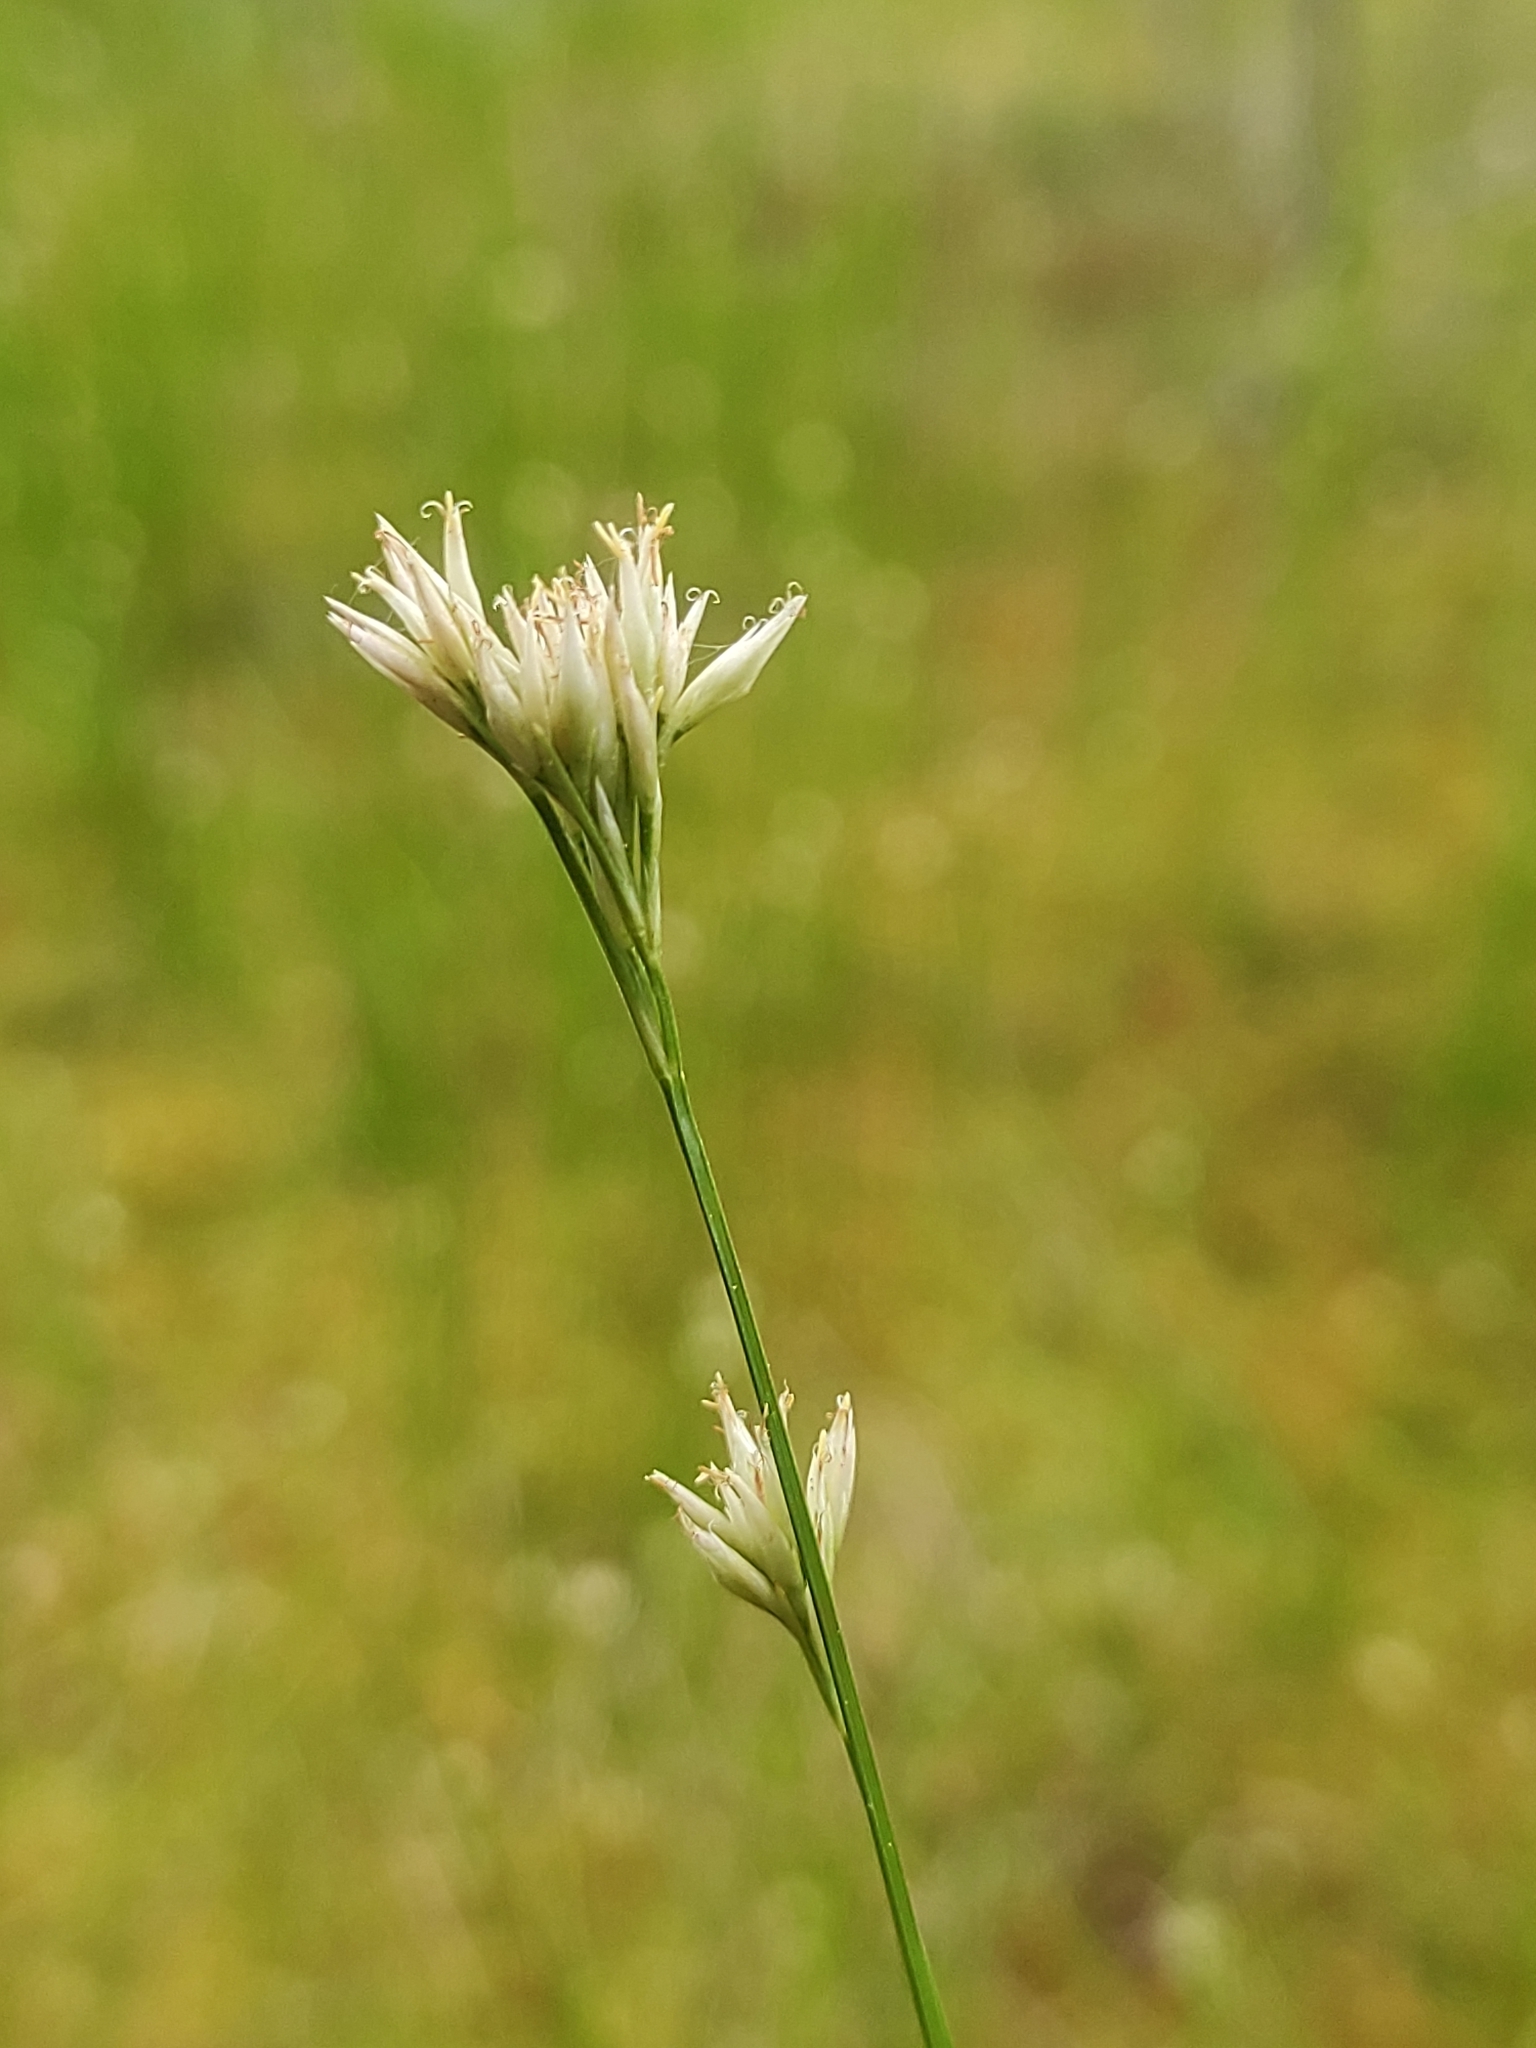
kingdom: Plantae
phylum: Tracheophyta
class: Liliopsida
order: Poales
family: Cyperaceae
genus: Rhynchospora
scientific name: Rhynchospora alba
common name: White beak-sedge
